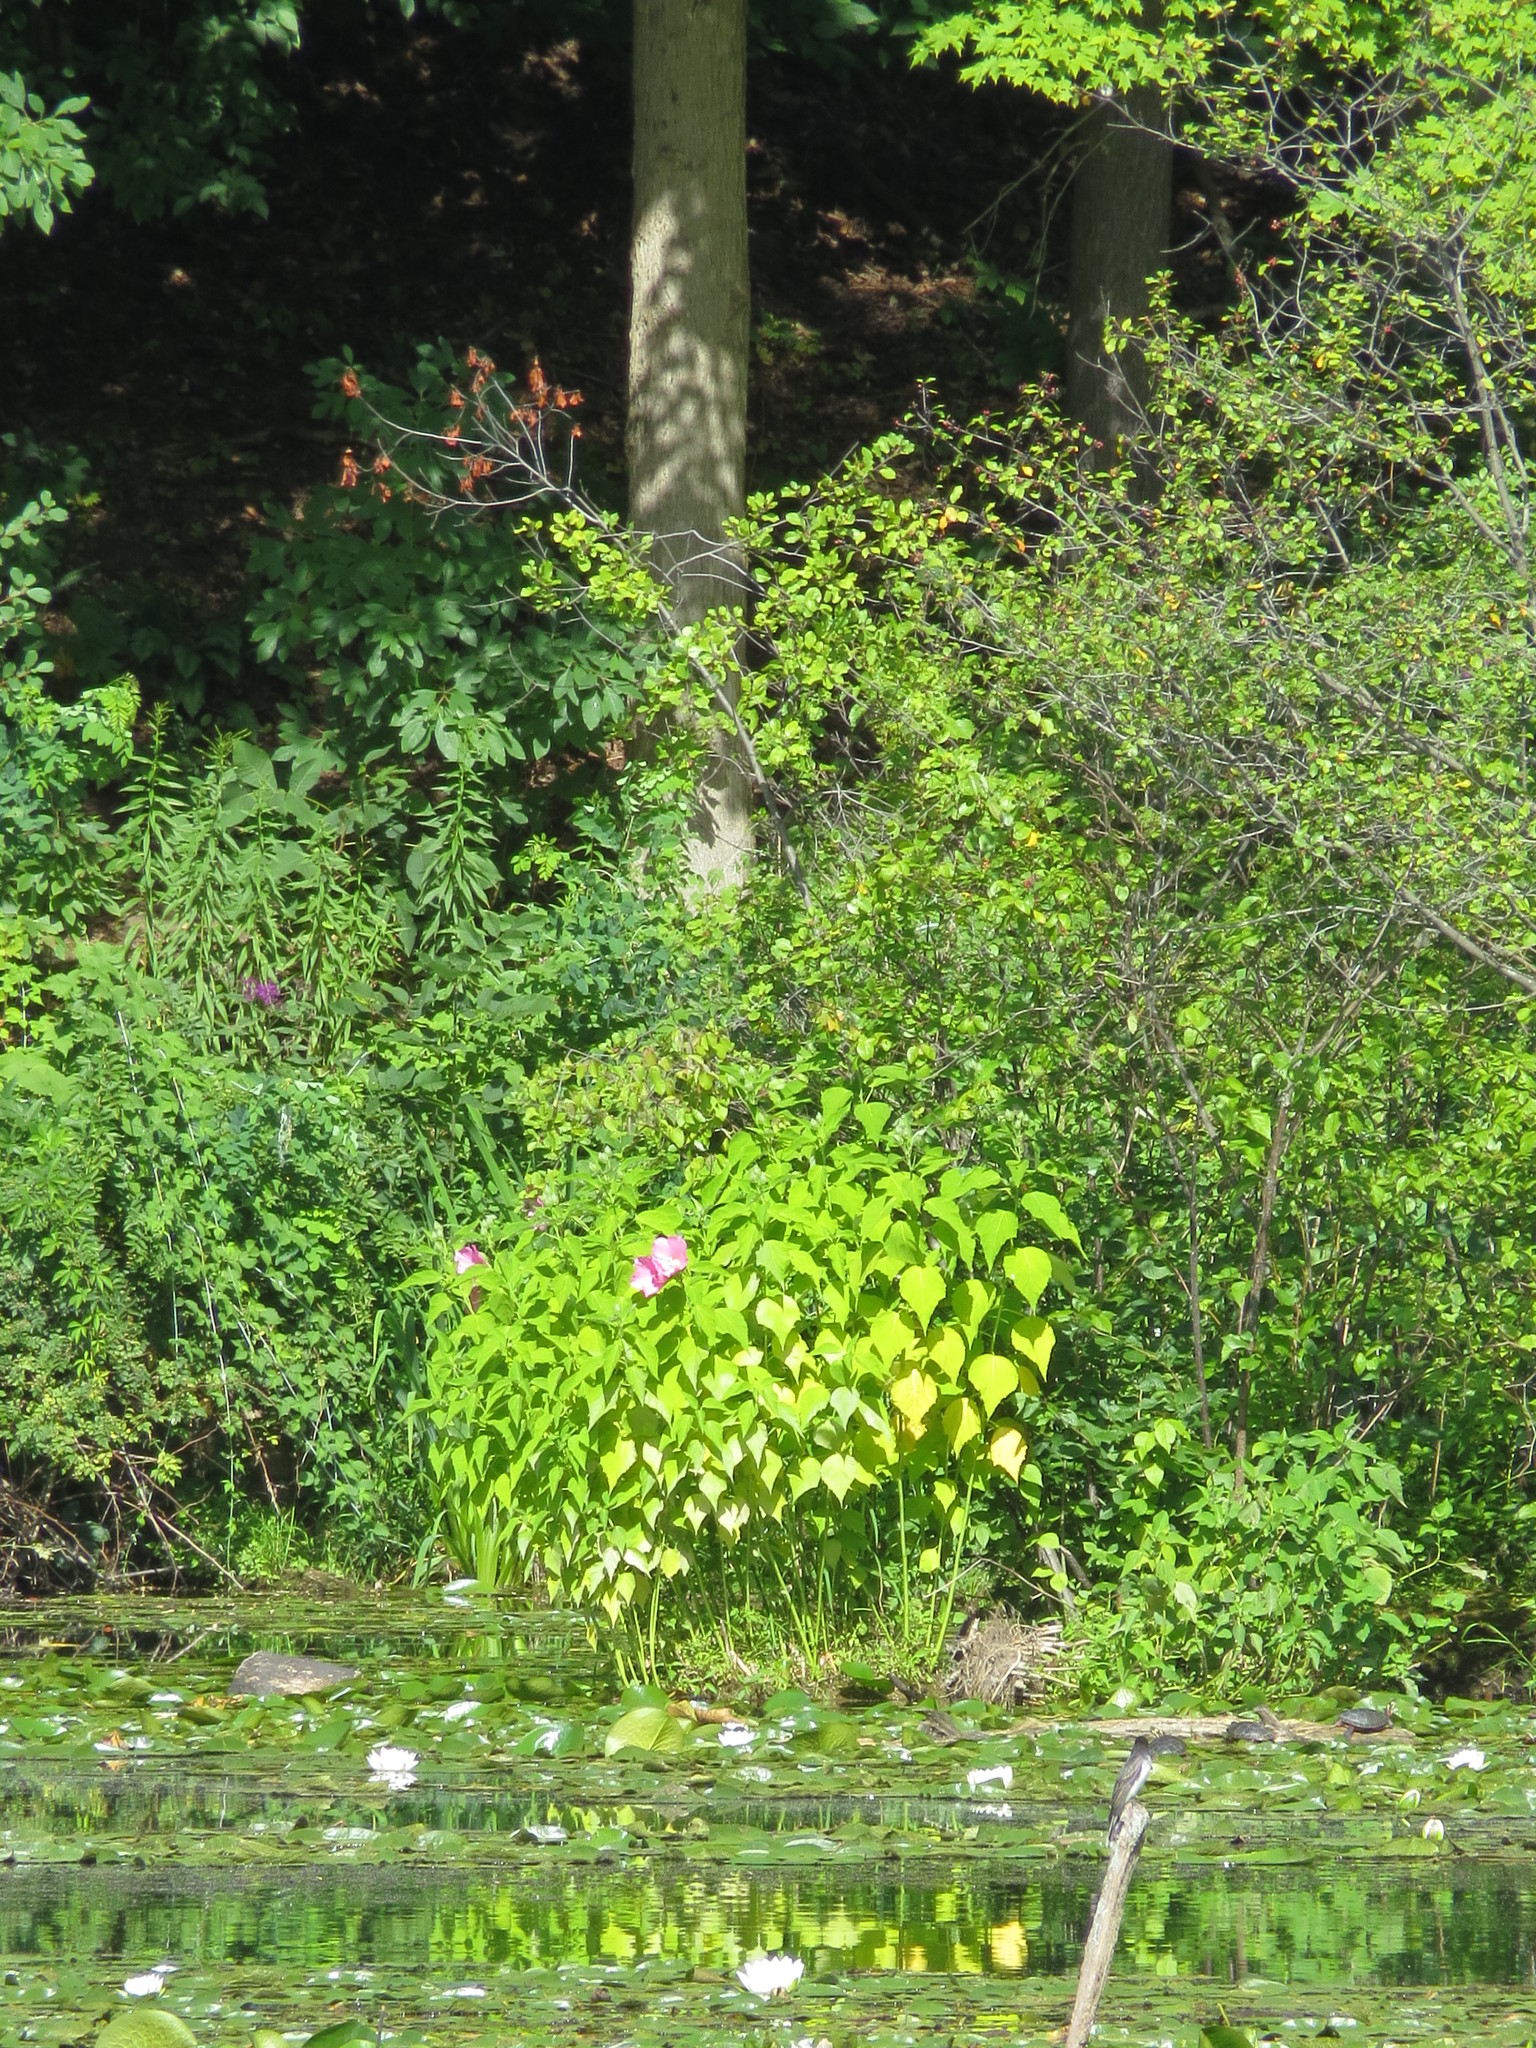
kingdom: Plantae
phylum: Tracheophyta
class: Magnoliopsida
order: Malvales
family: Malvaceae
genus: Hibiscus
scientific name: Hibiscus moscheutos
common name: Common rose-mallow
